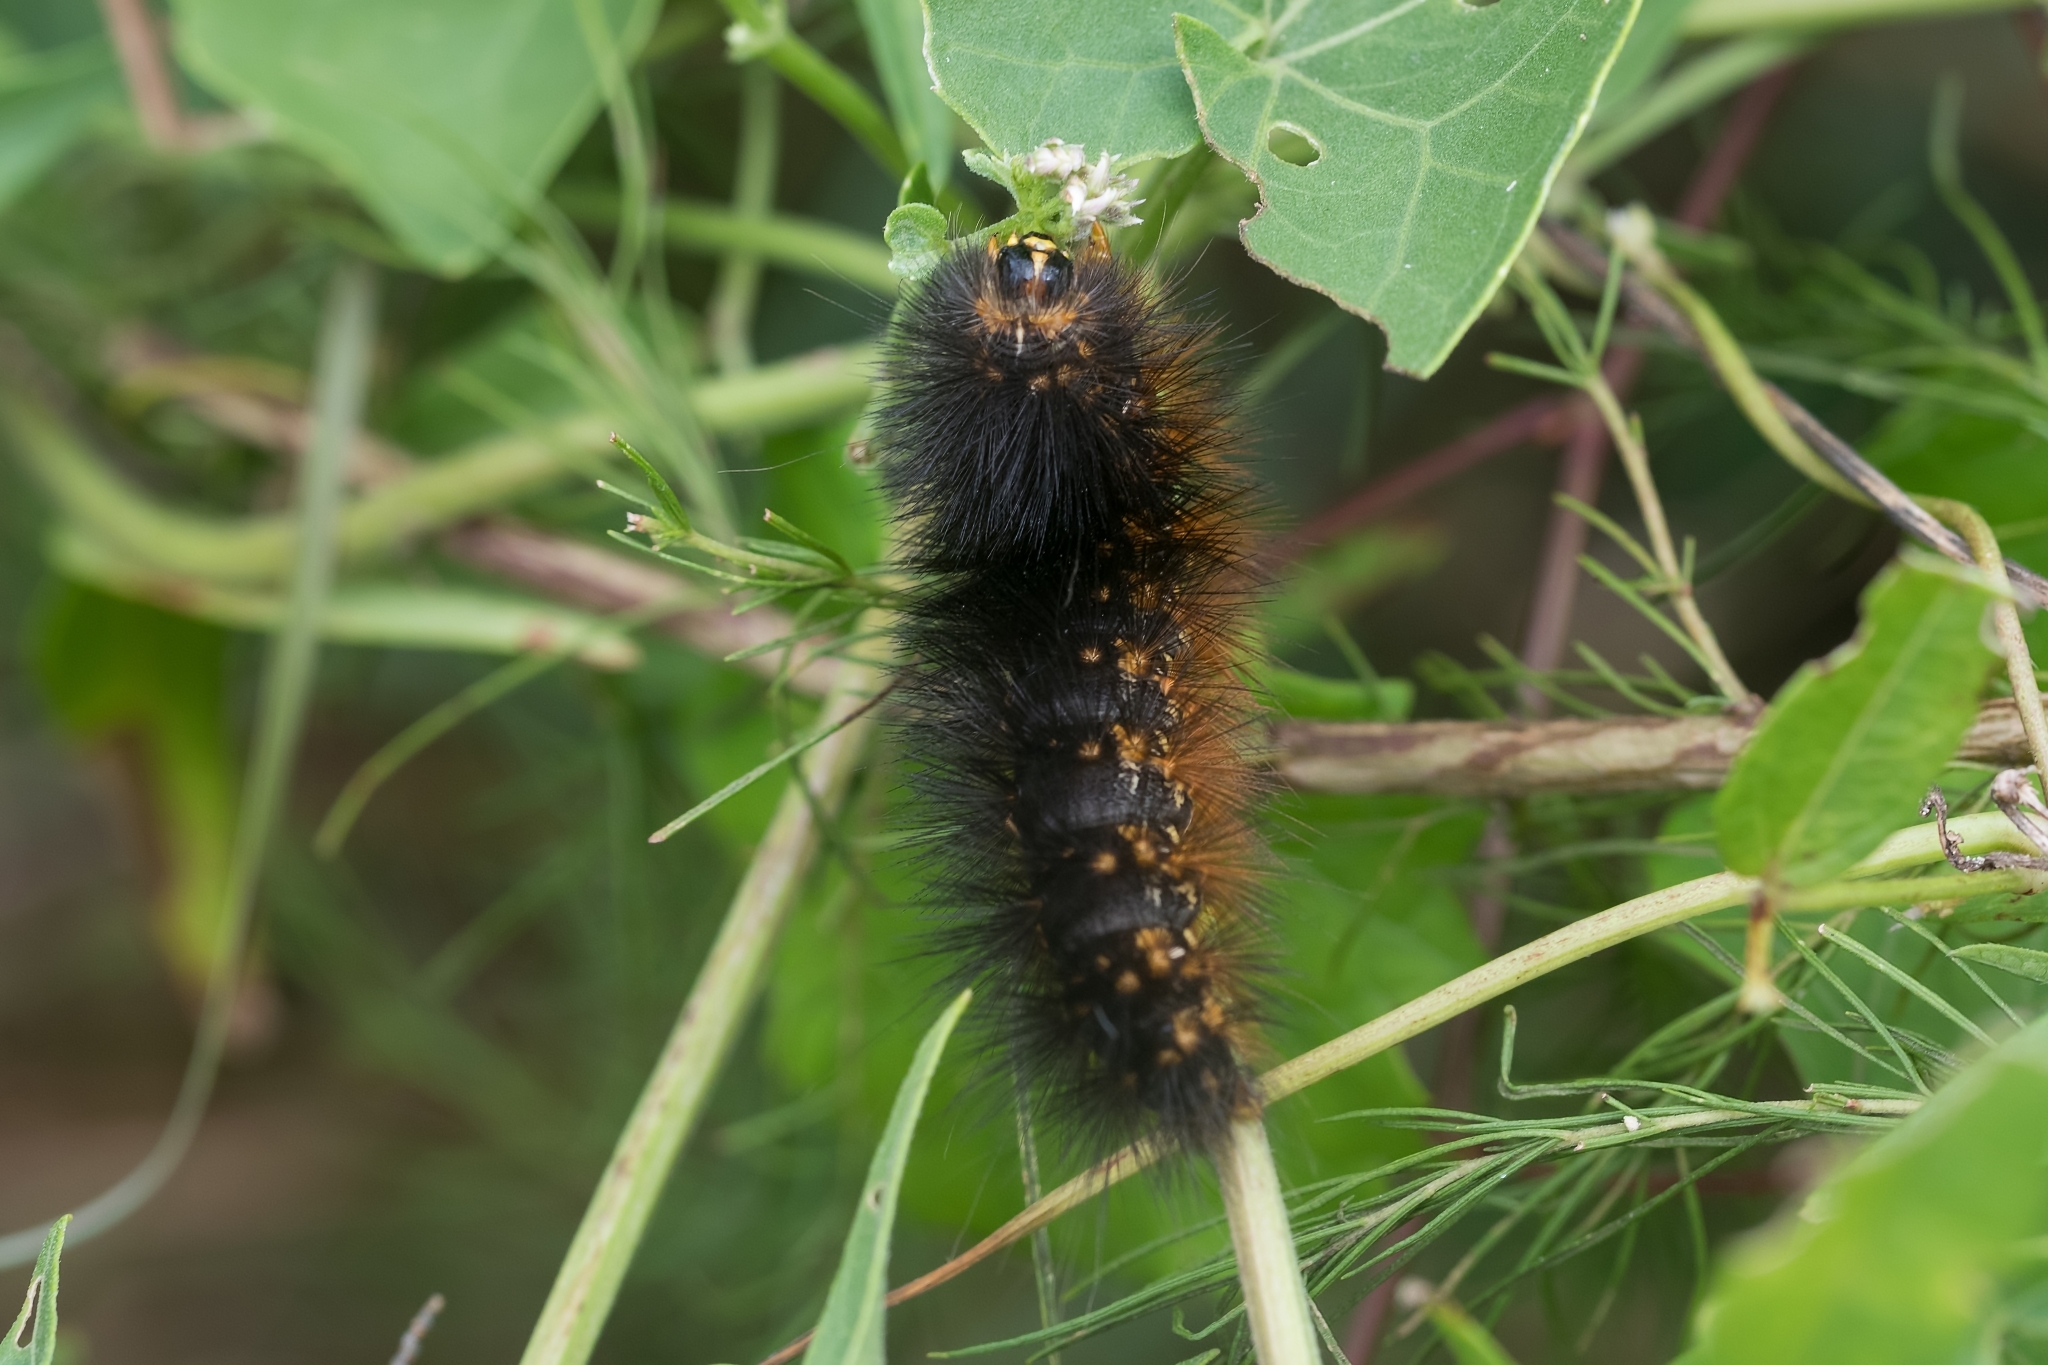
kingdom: Animalia
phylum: Arthropoda
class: Insecta
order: Lepidoptera
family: Erebidae
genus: Estigmene
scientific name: Estigmene acrea
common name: Salt marsh moth
